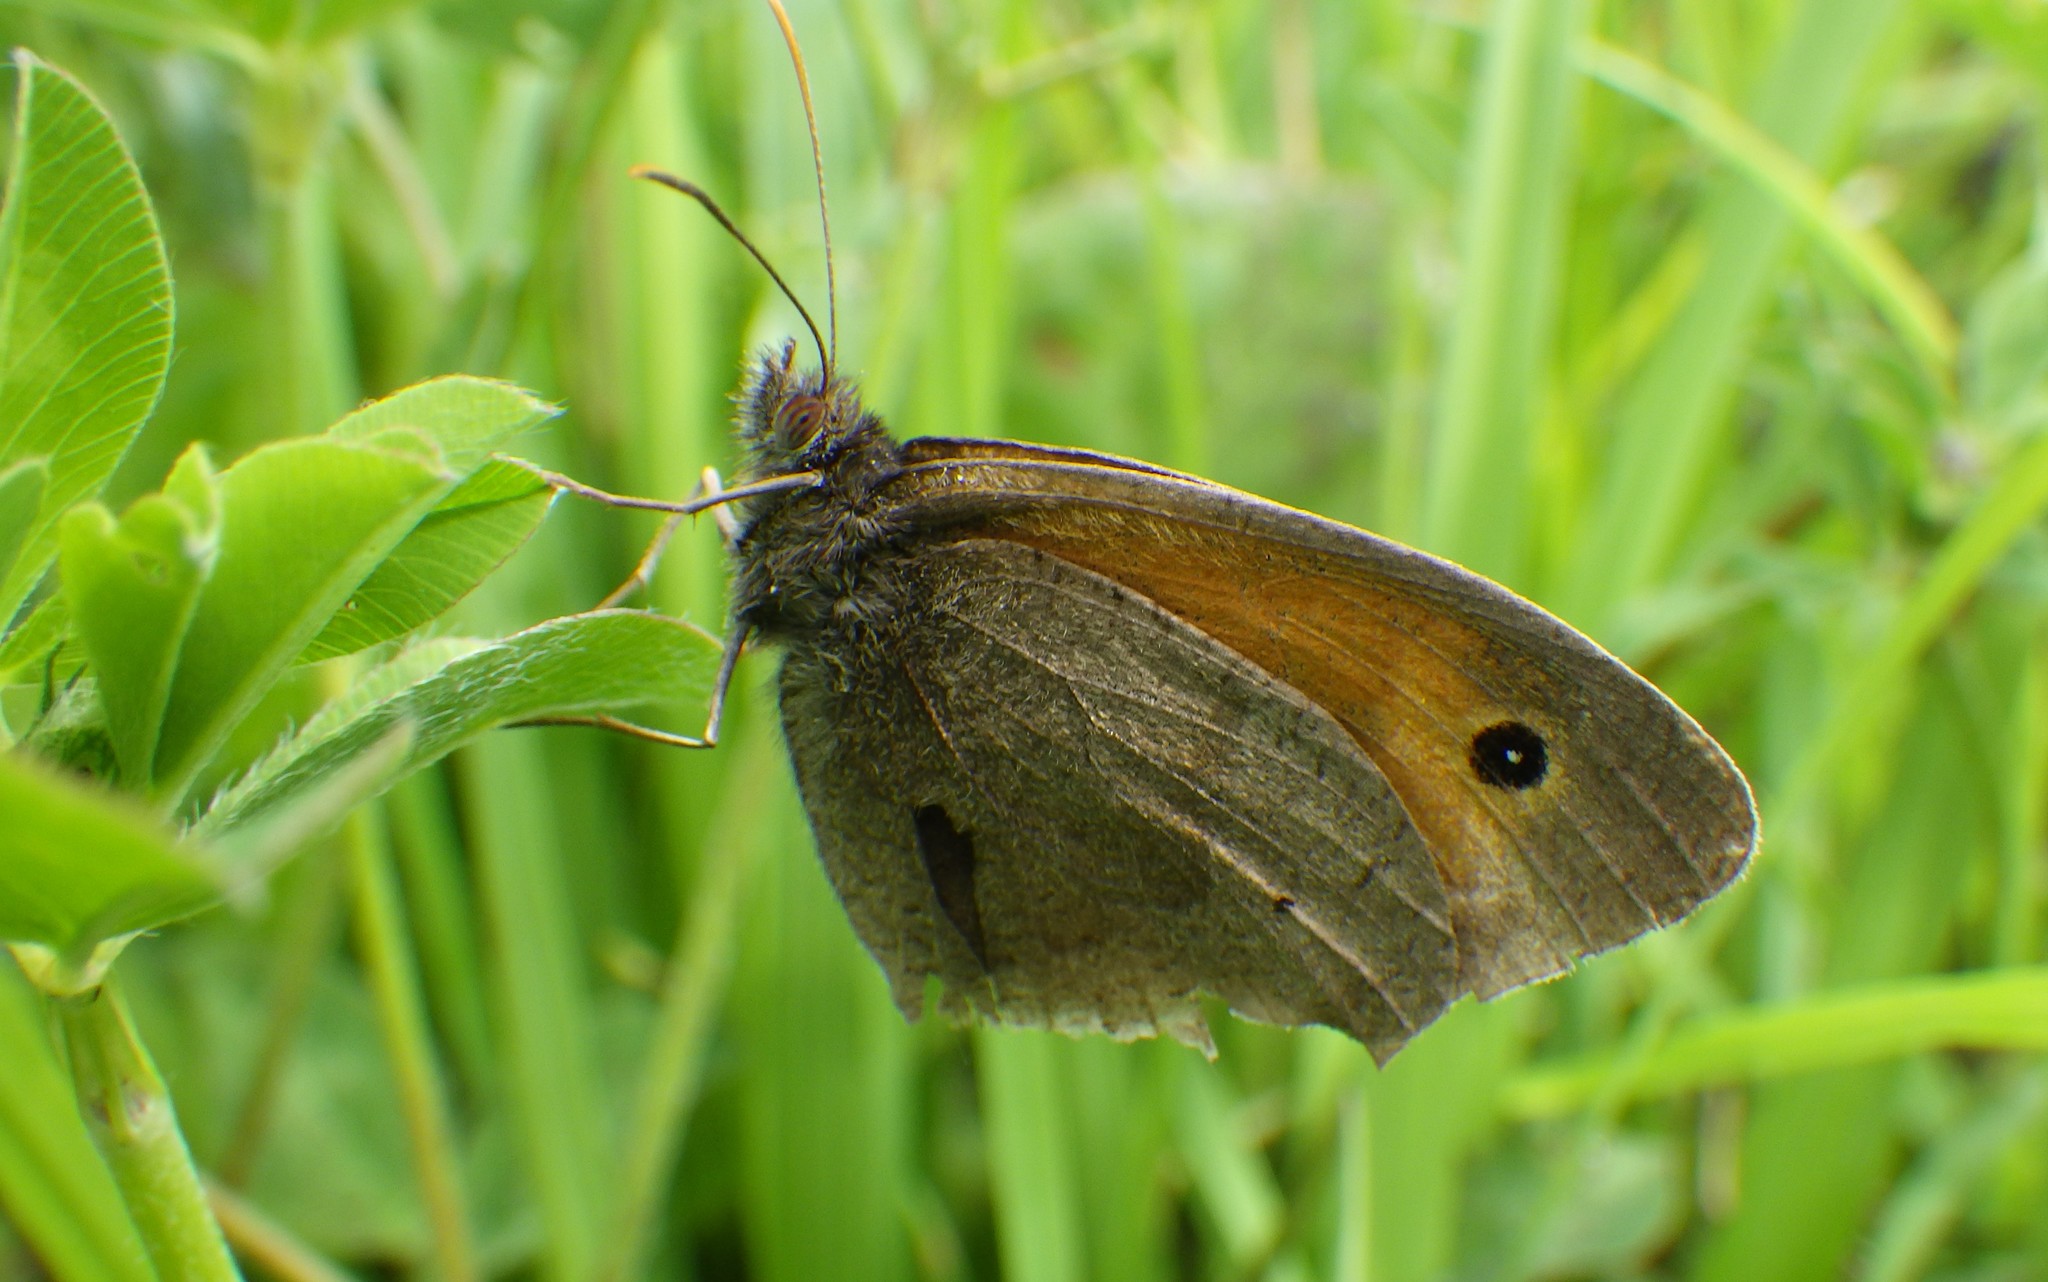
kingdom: Animalia
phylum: Arthropoda
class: Insecta
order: Lepidoptera
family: Nymphalidae
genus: Maniola
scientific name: Maniola jurtina
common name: Meadow brown
